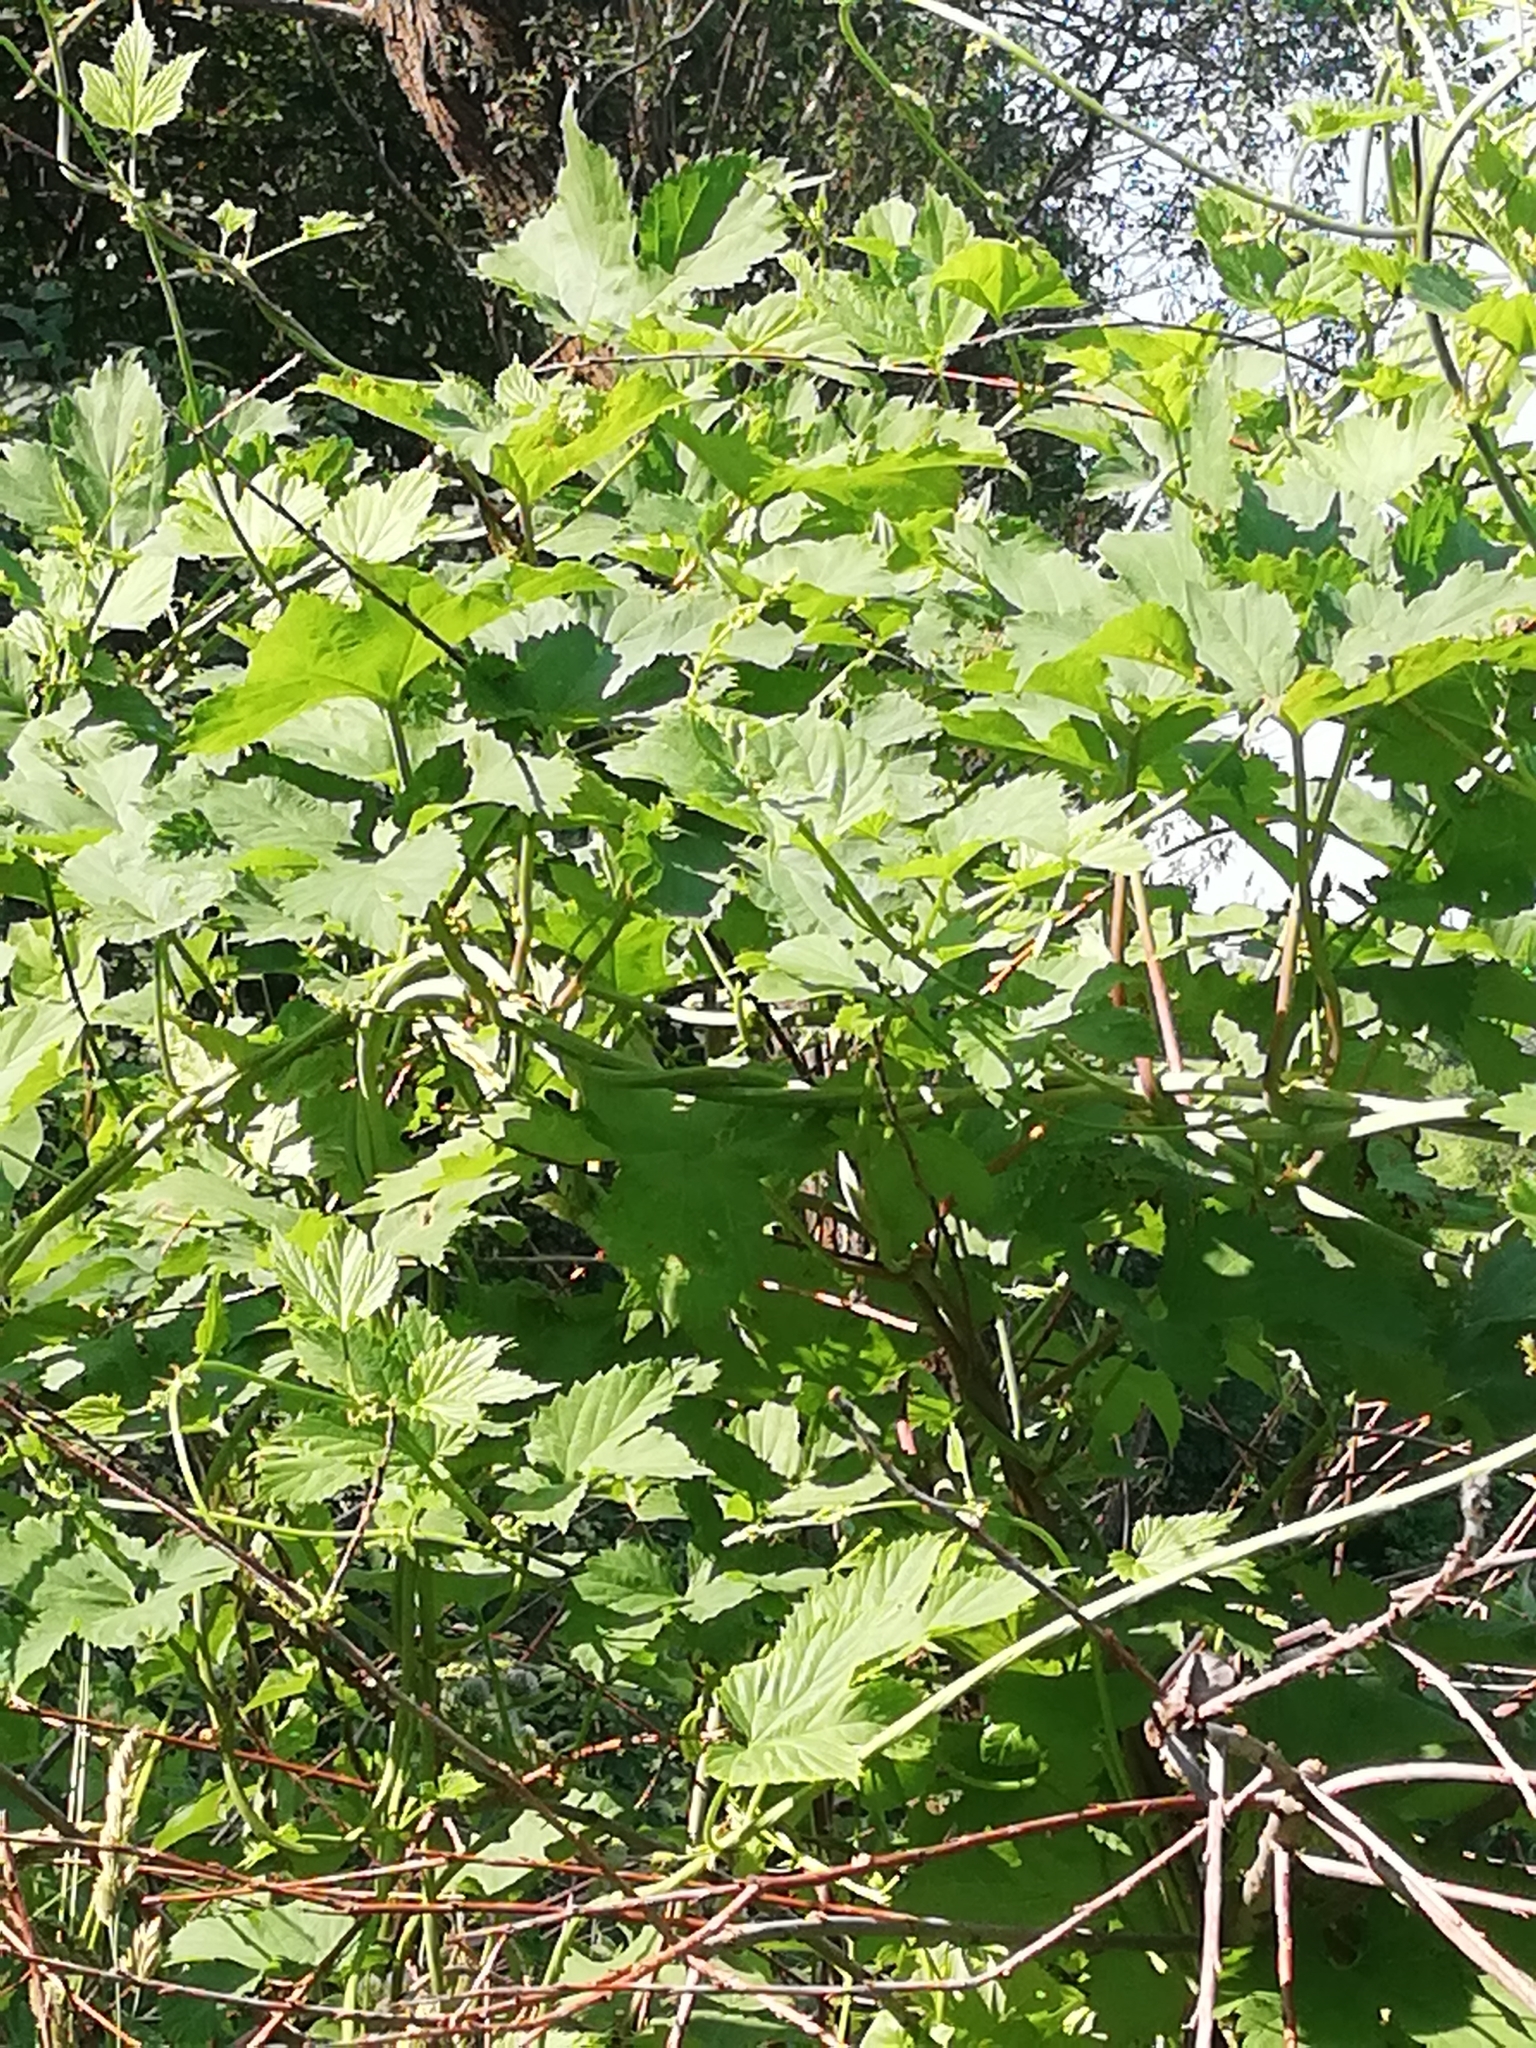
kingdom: Plantae
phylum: Tracheophyta
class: Magnoliopsida
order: Rosales
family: Cannabaceae
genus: Humulus
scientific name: Humulus lupulus
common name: Hop
